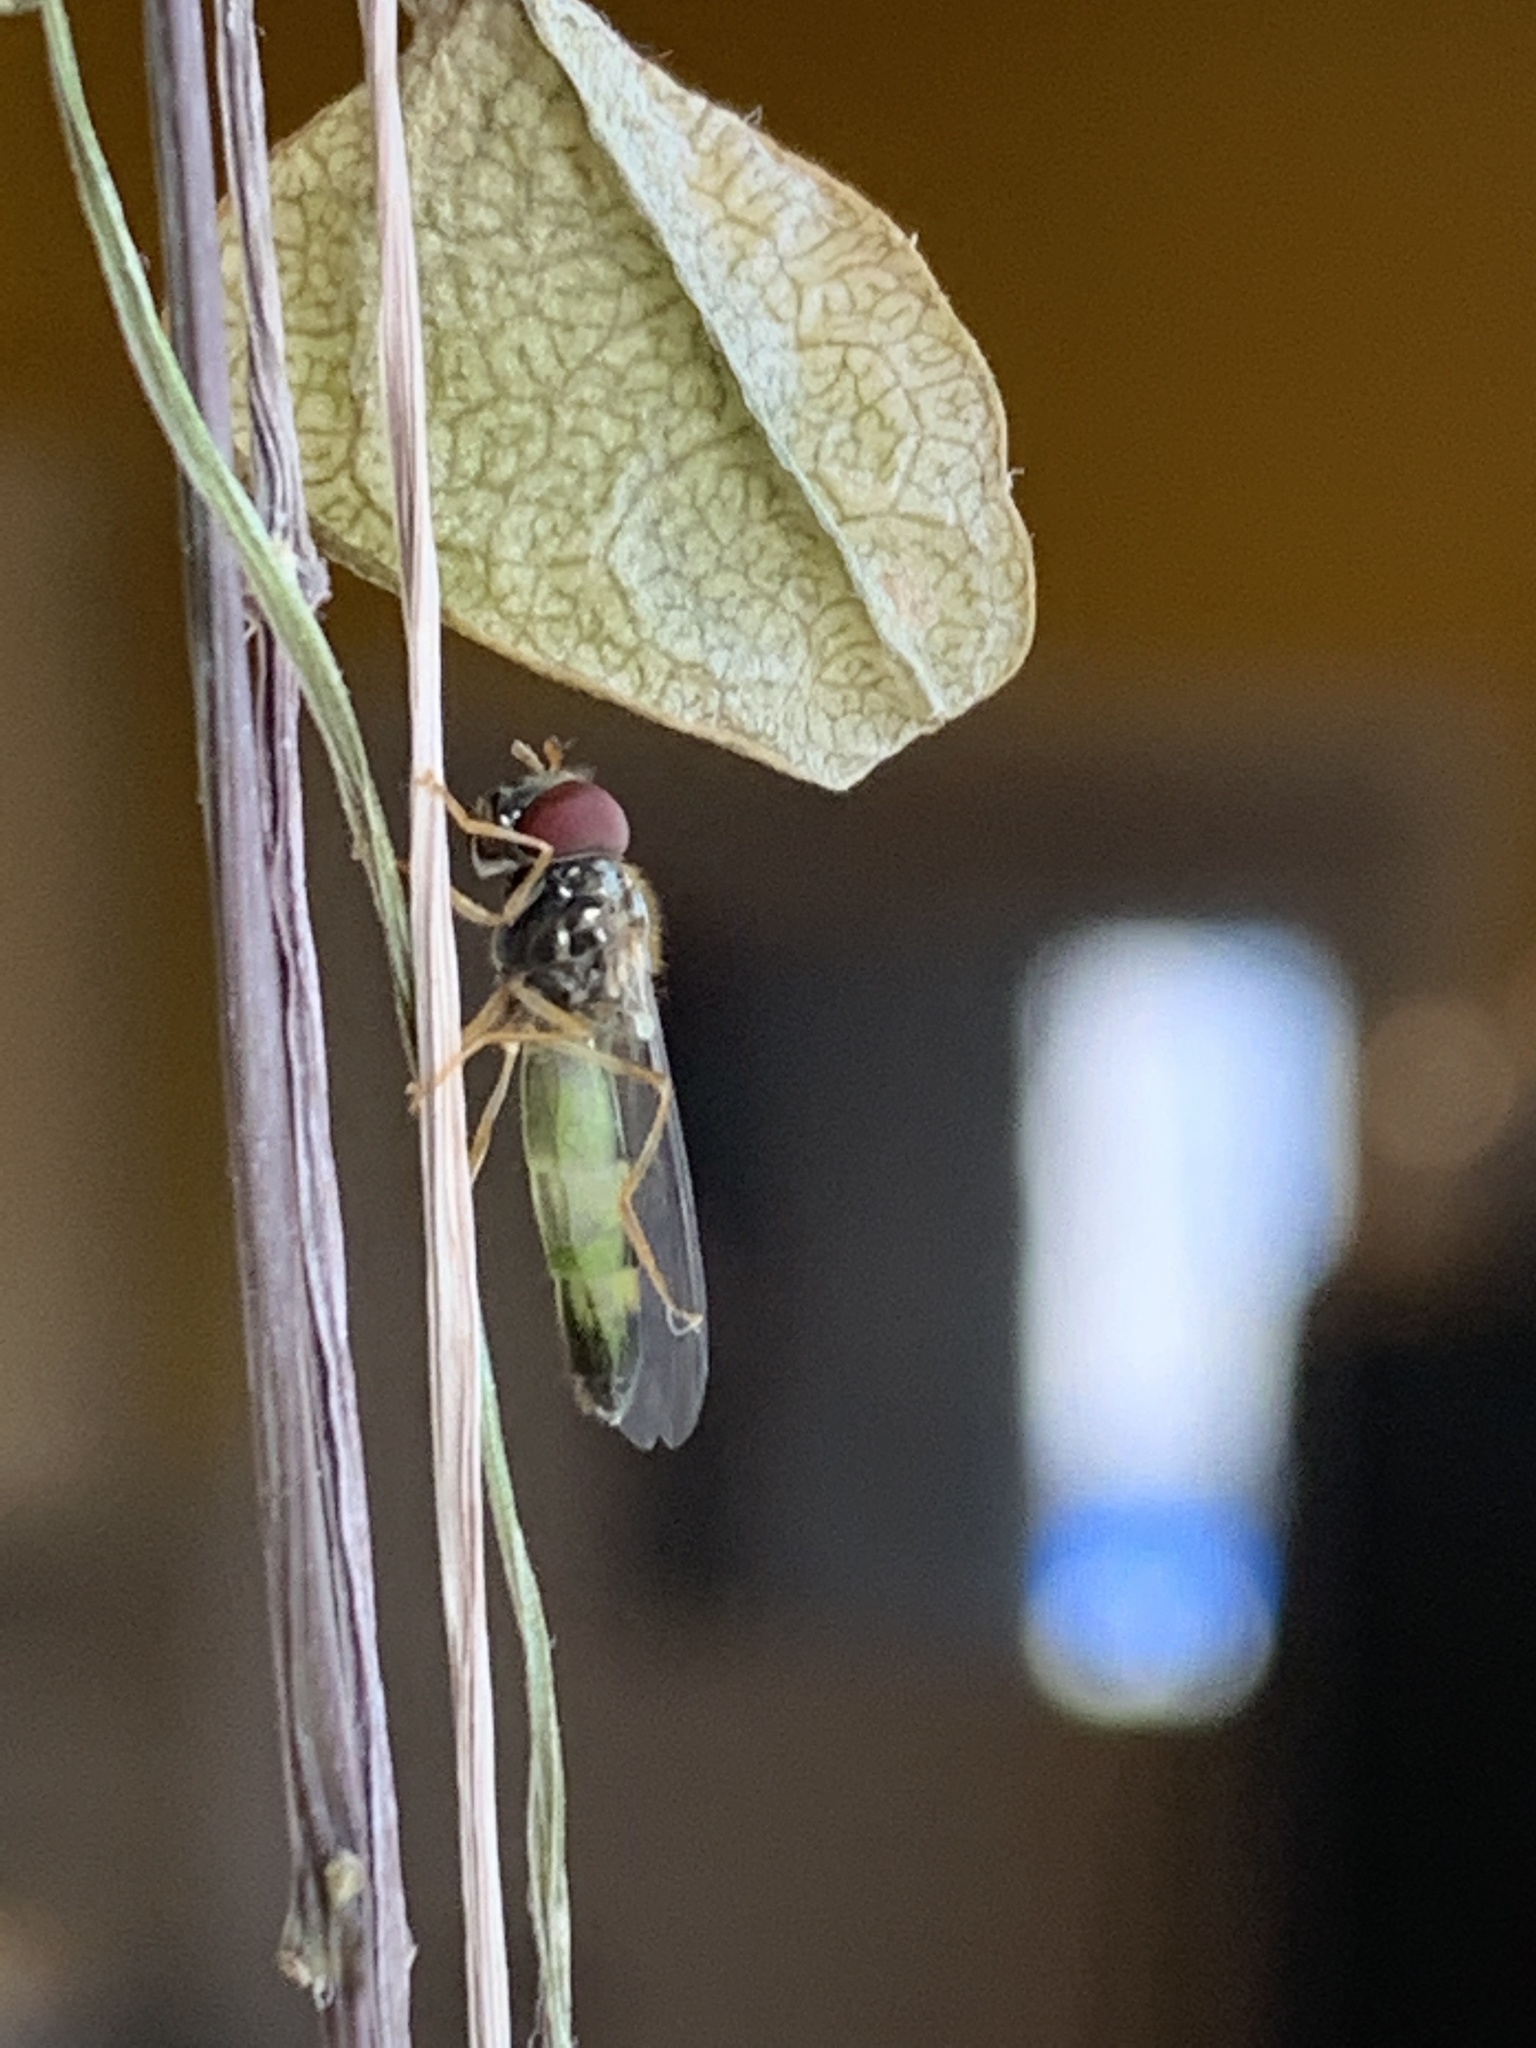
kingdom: Animalia
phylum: Arthropoda
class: Insecta
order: Diptera
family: Syrphidae
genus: Melanostoma
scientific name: Melanostoma mellina
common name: Hover fly
